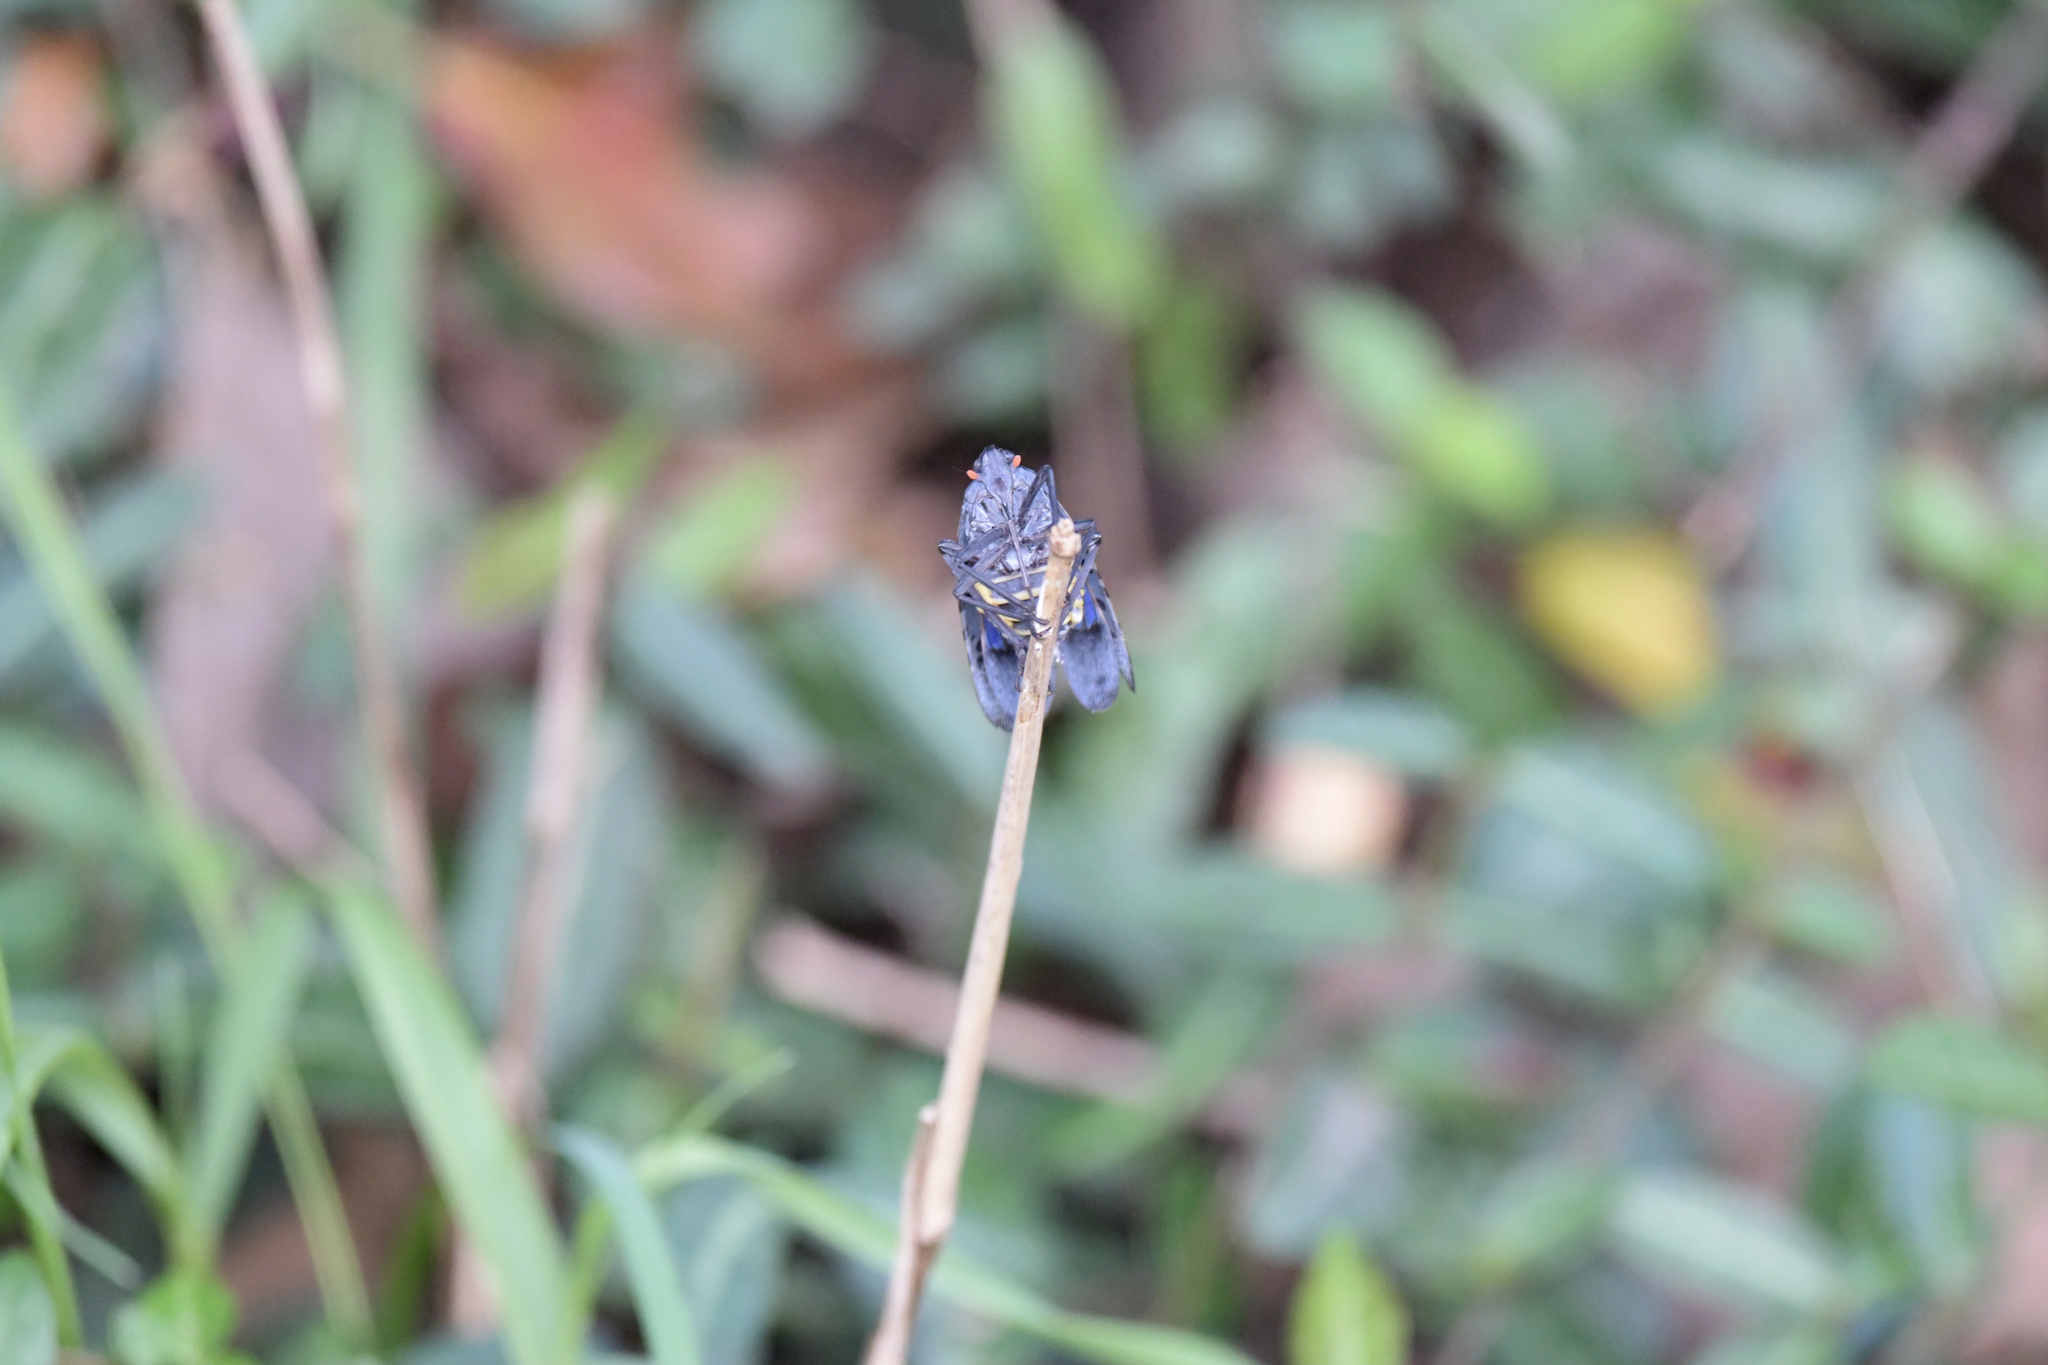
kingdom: Animalia
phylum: Arthropoda
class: Insecta
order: Hemiptera
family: Fulgoridae
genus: Lycorma
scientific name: Lycorma delicatula
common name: Spotted lanternfly
